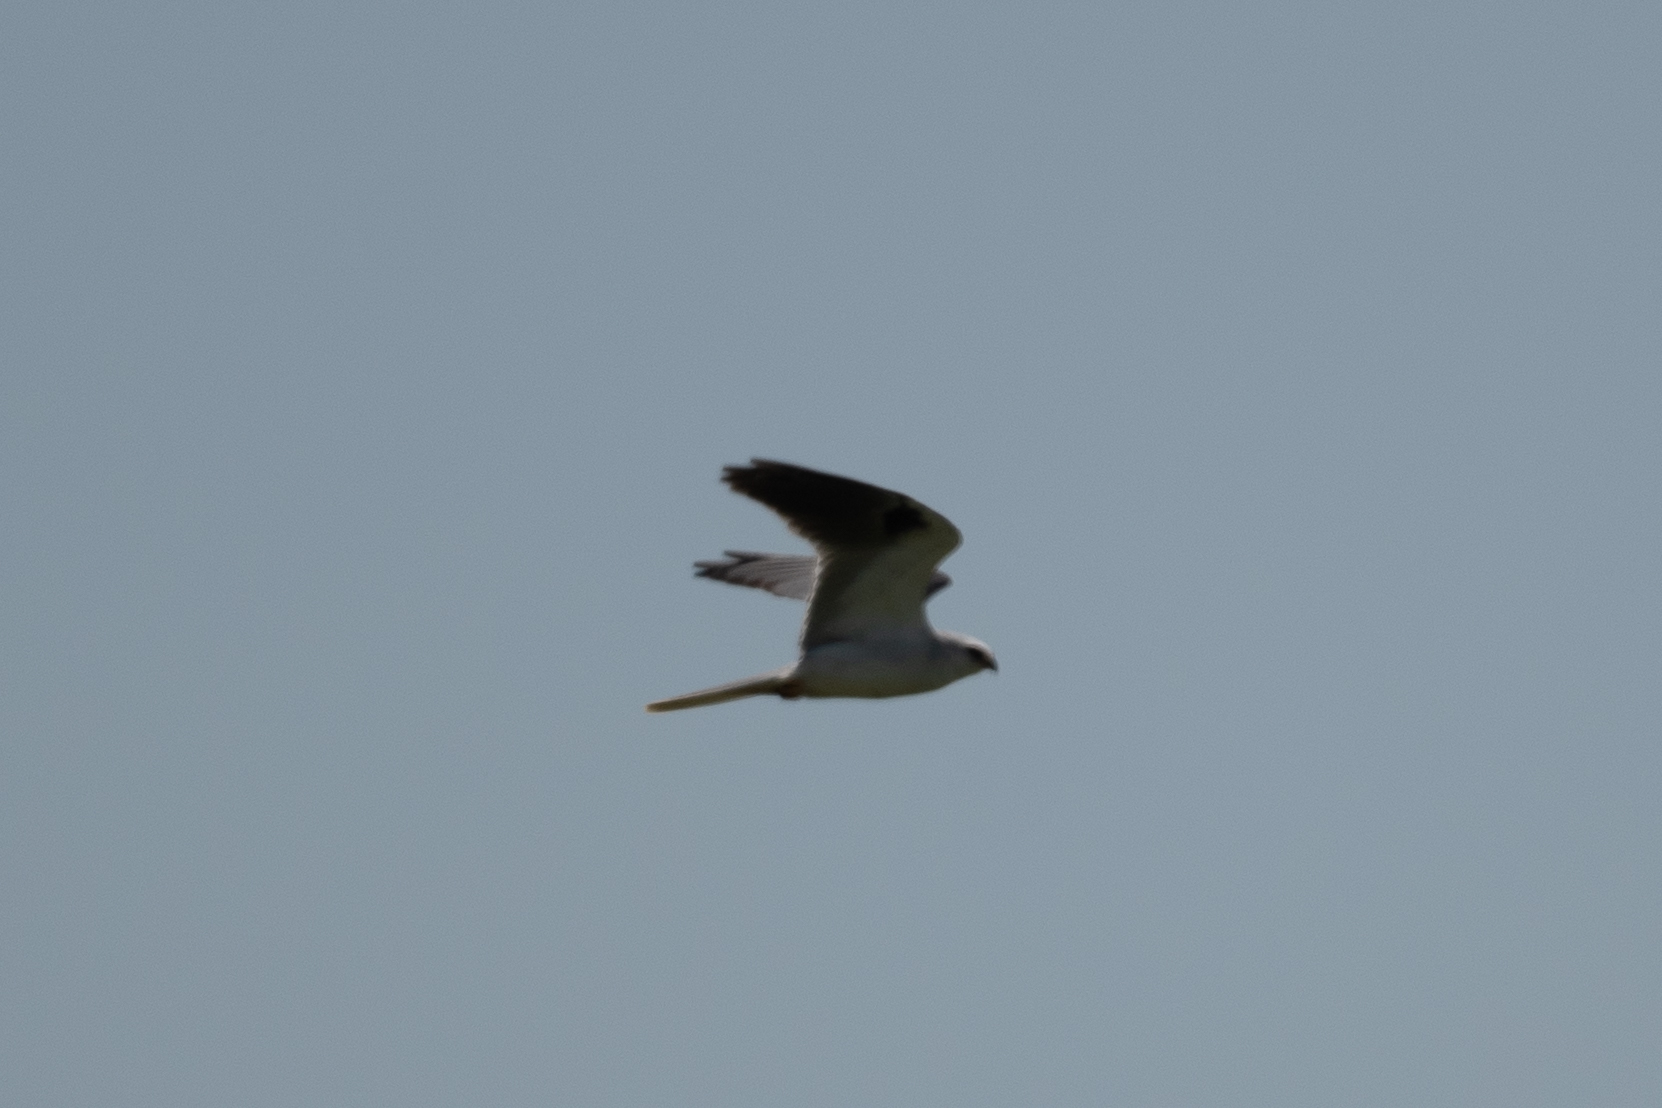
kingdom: Animalia
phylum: Chordata
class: Aves
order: Accipitriformes
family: Accipitridae
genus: Elanus
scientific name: Elanus leucurus
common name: White-tailed kite
